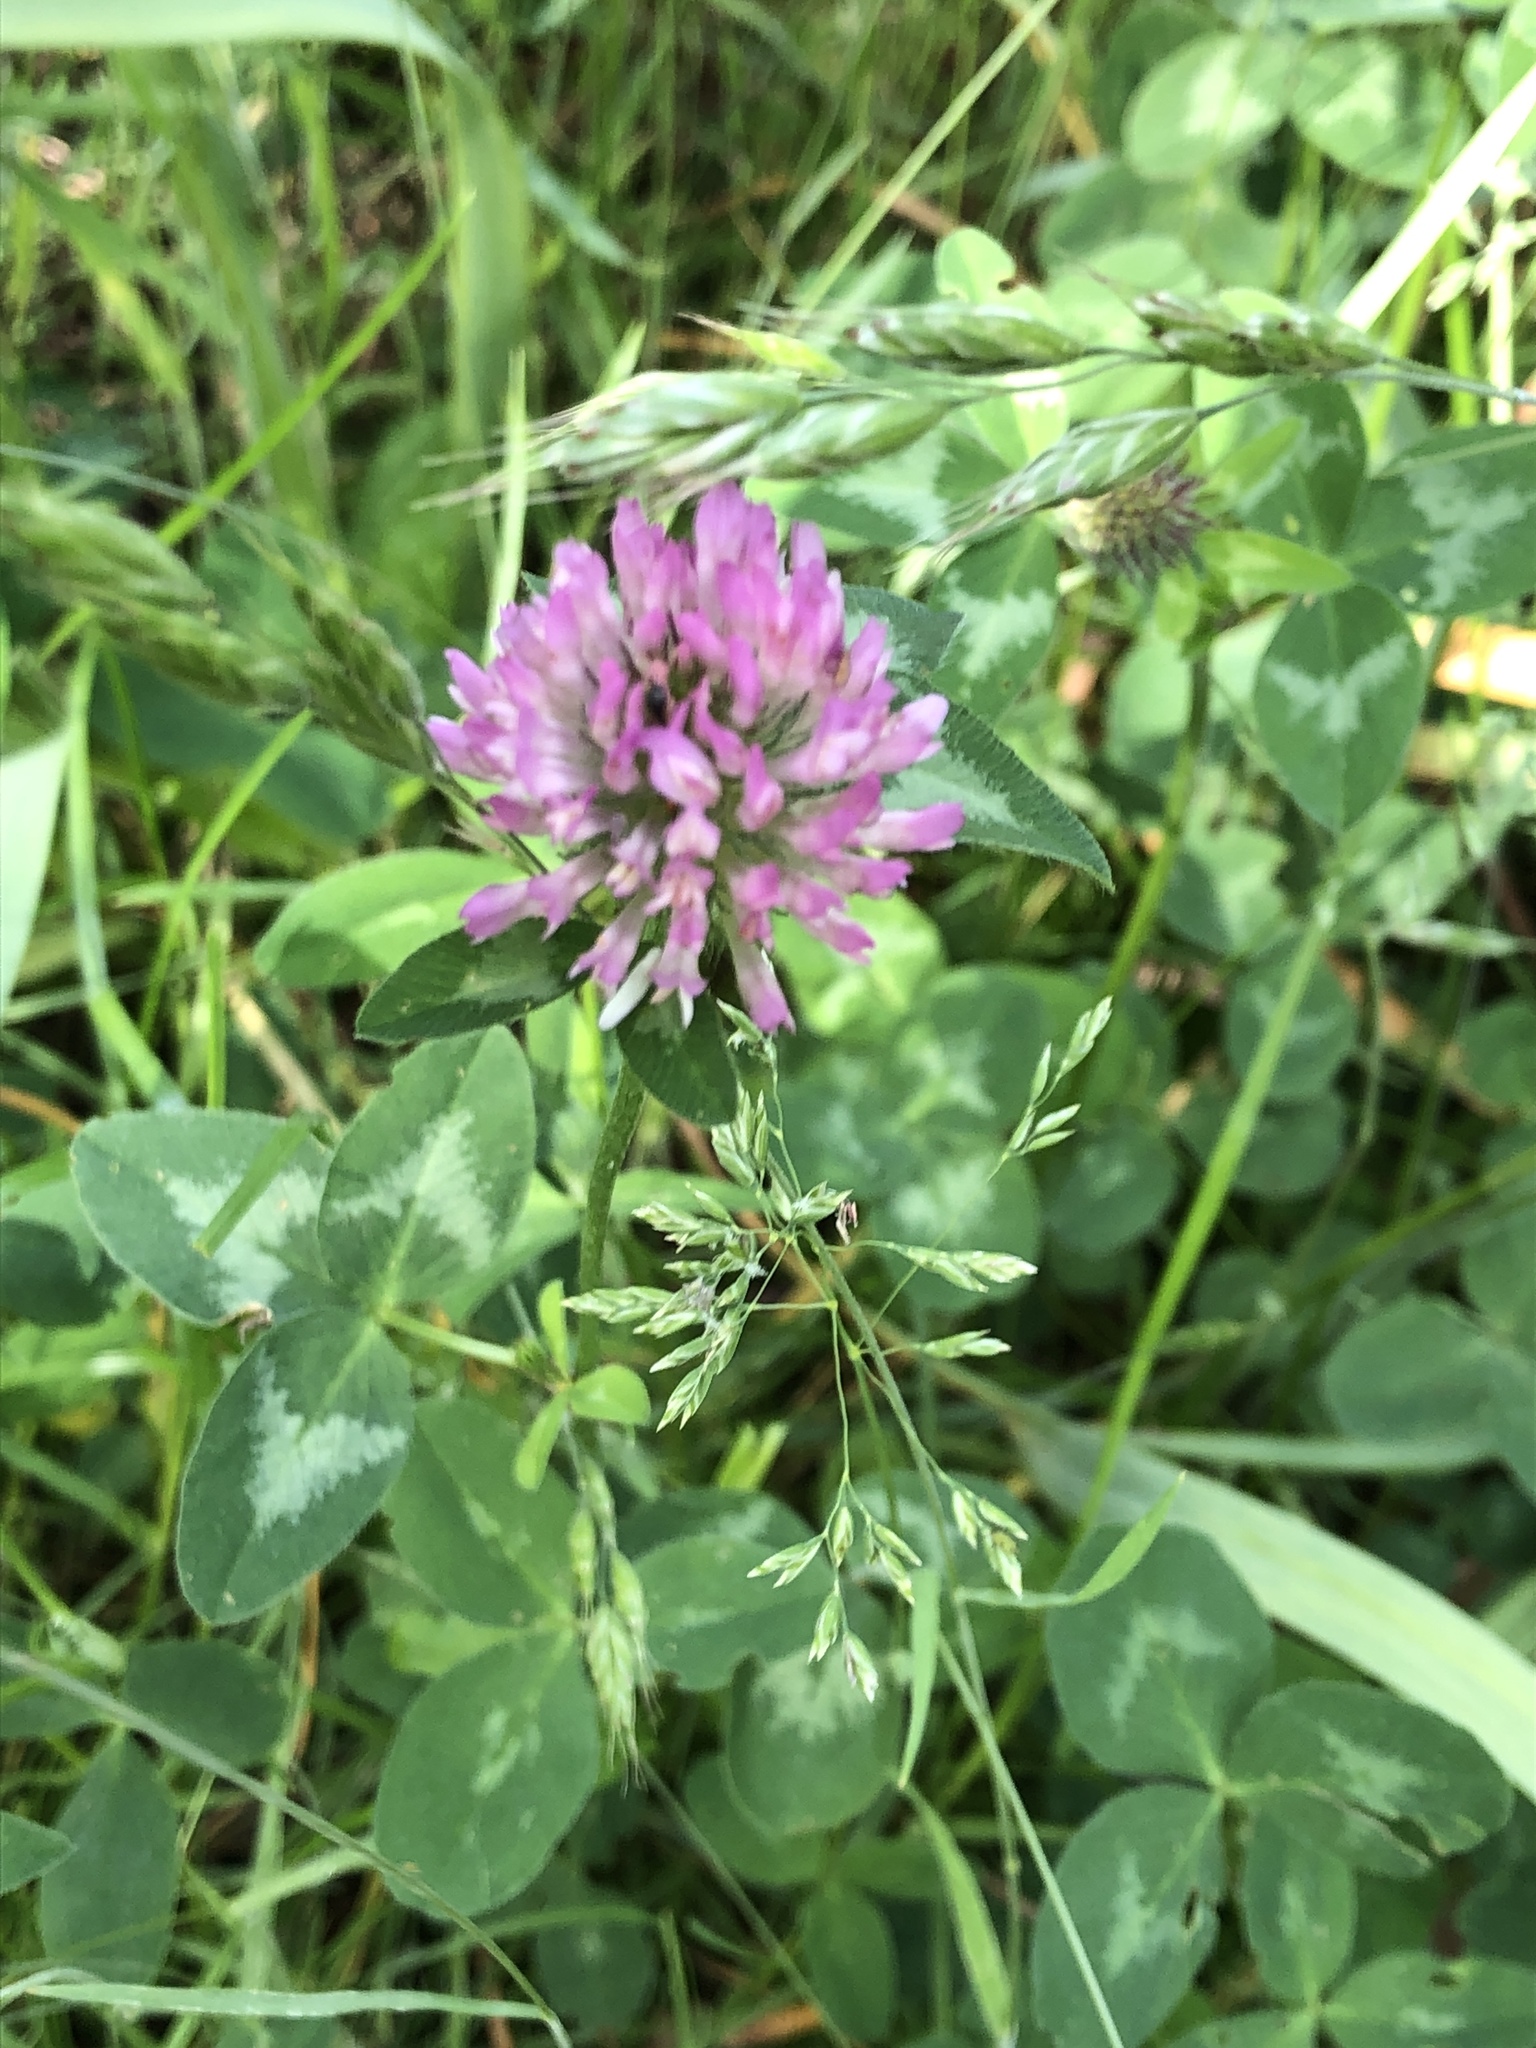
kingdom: Plantae
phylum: Tracheophyta
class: Magnoliopsida
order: Fabales
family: Fabaceae
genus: Trifolium
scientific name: Trifolium pratense
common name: Red clover
